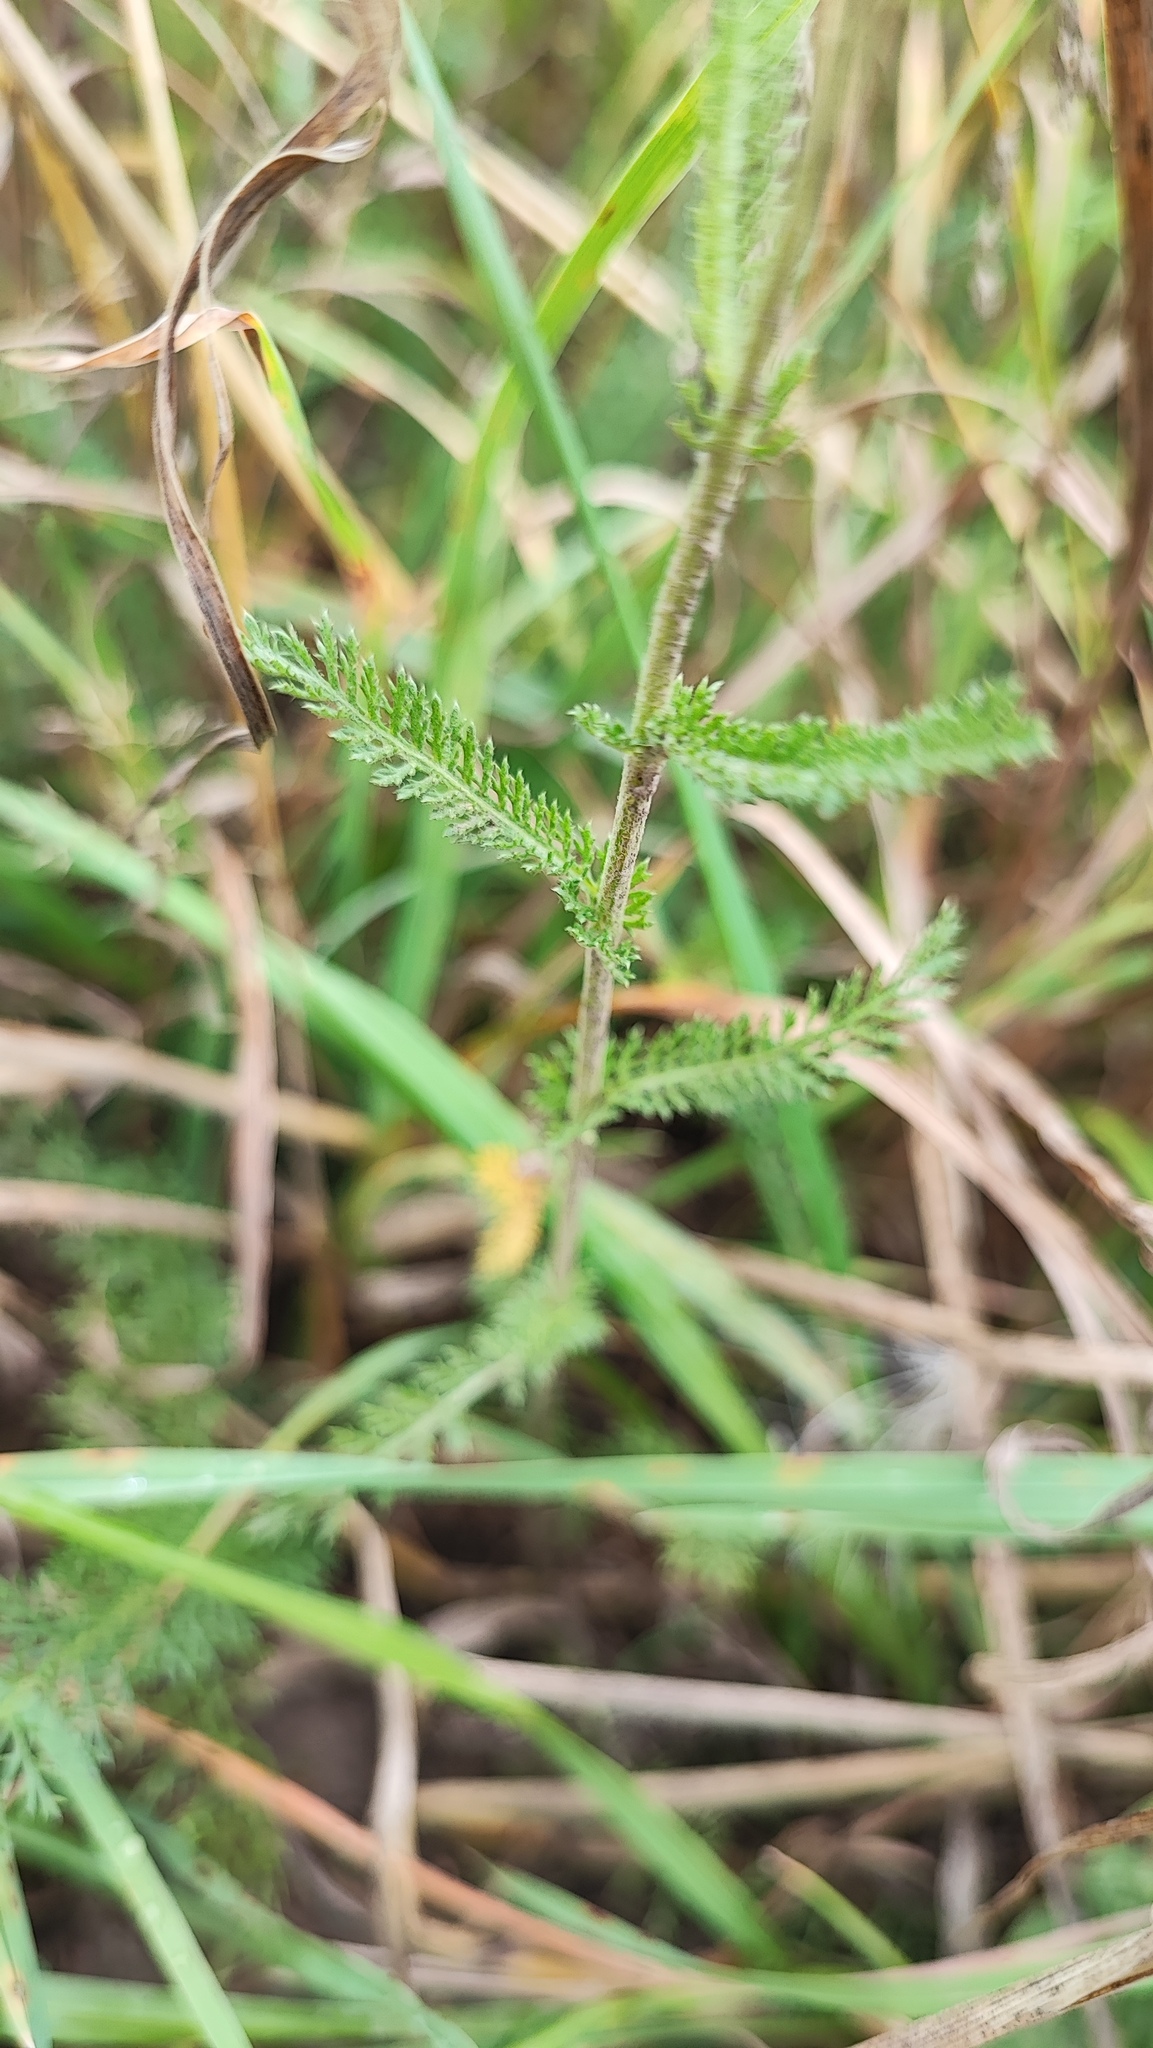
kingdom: Plantae
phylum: Tracheophyta
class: Magnoliopsida
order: Asterales
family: Asteraceae
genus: Achillea
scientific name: Achillea millefolium
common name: Yarrow
